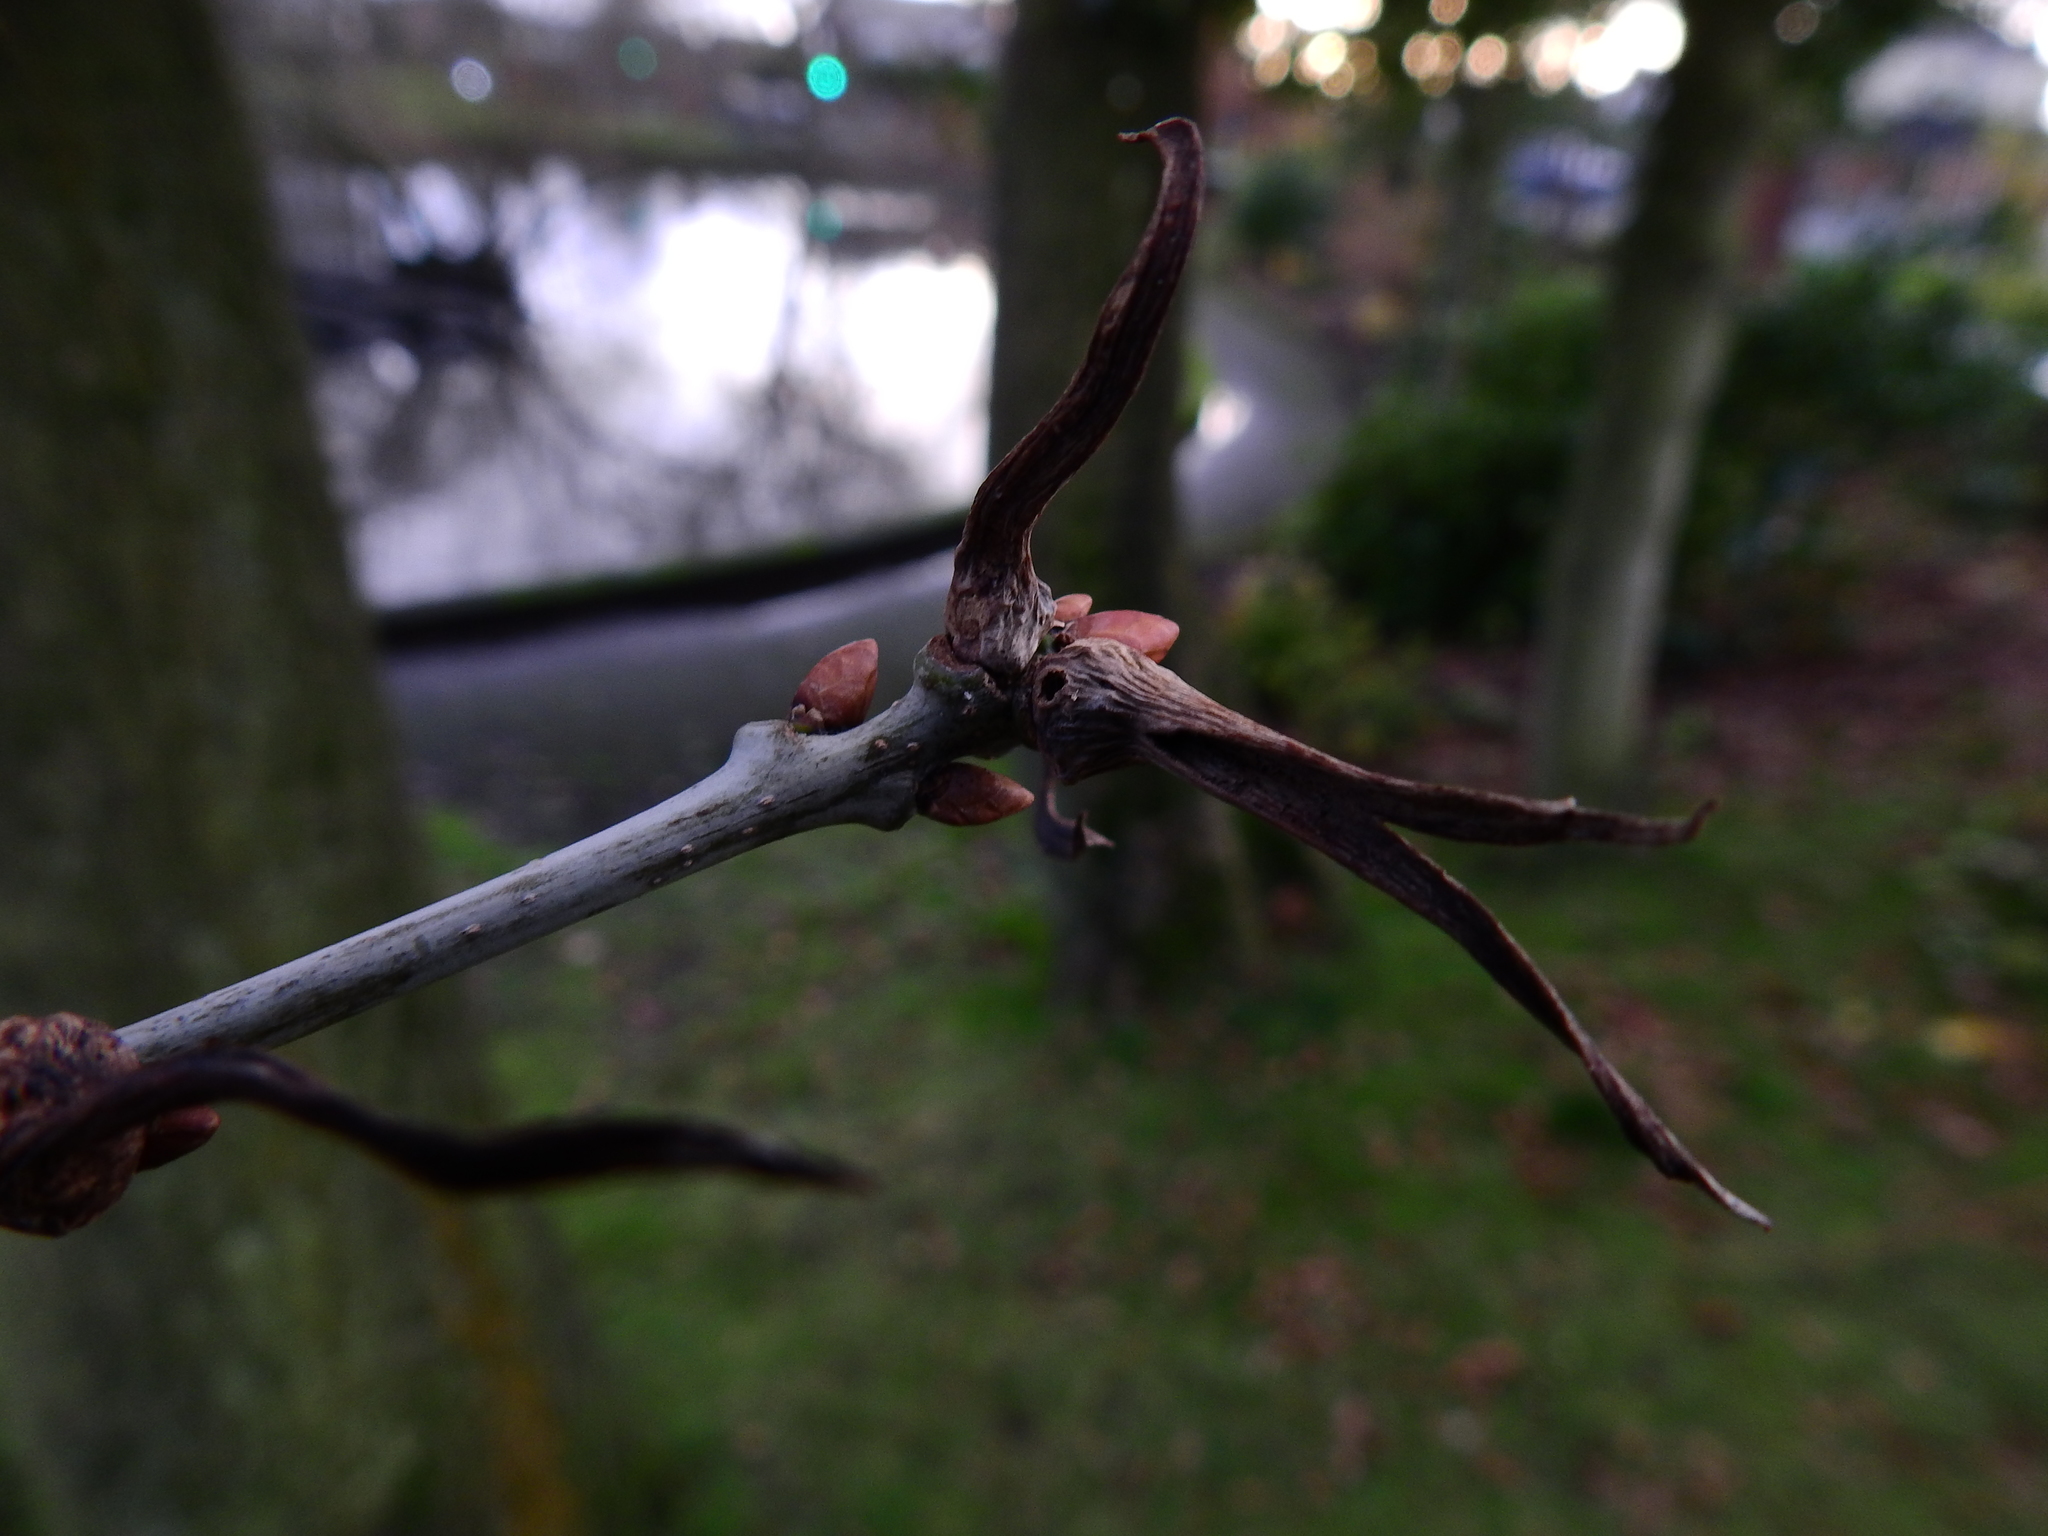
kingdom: Animalia
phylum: Arthropoda
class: Insecta
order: Hymenoptera
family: Cynipidae
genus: Andricus
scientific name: Andricus aries
